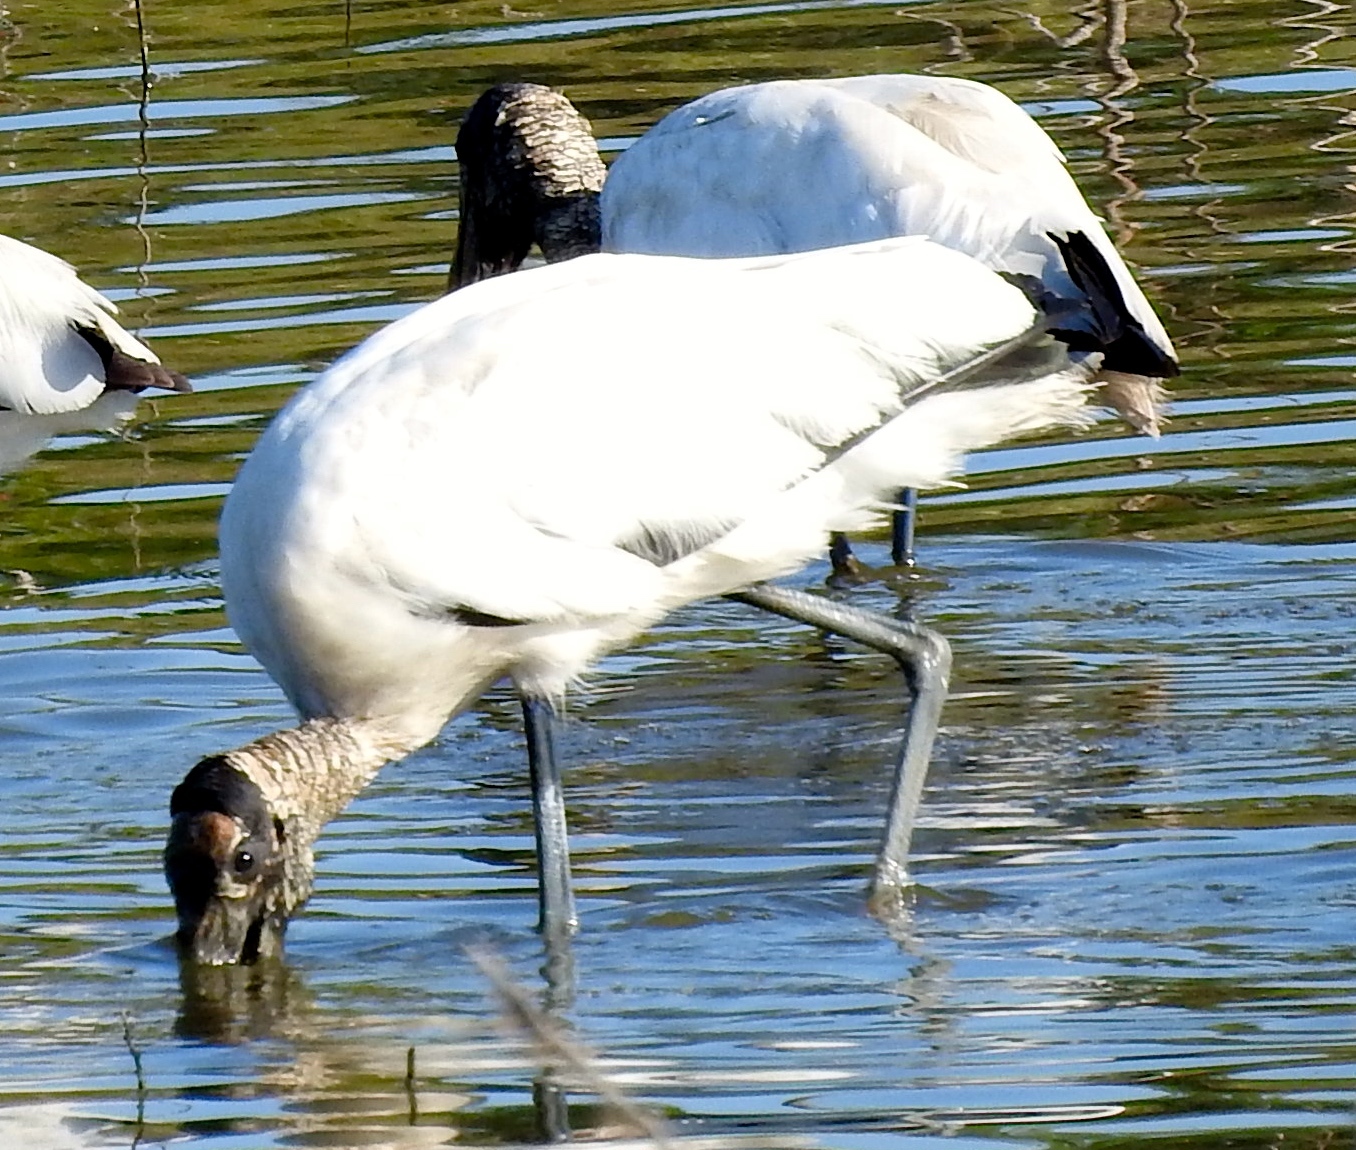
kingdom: Animalia
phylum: Chordata
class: Aves
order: Ciconiiformes
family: Ciconiidae
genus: Mycteria
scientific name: Mycteria americana
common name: Wood stork
